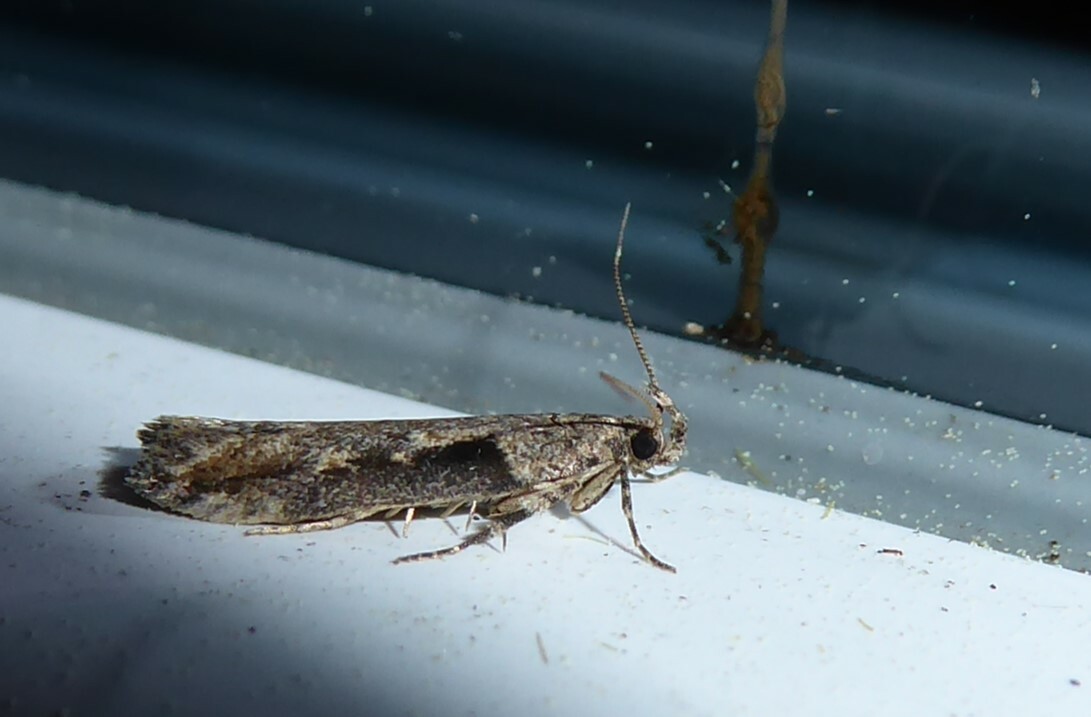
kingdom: Animalia
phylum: Arthropoda
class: Insecta
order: Lepidoptera
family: Gelechiidae
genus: Symmetrischema
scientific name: Symmetrischema tangolias
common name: Moth
